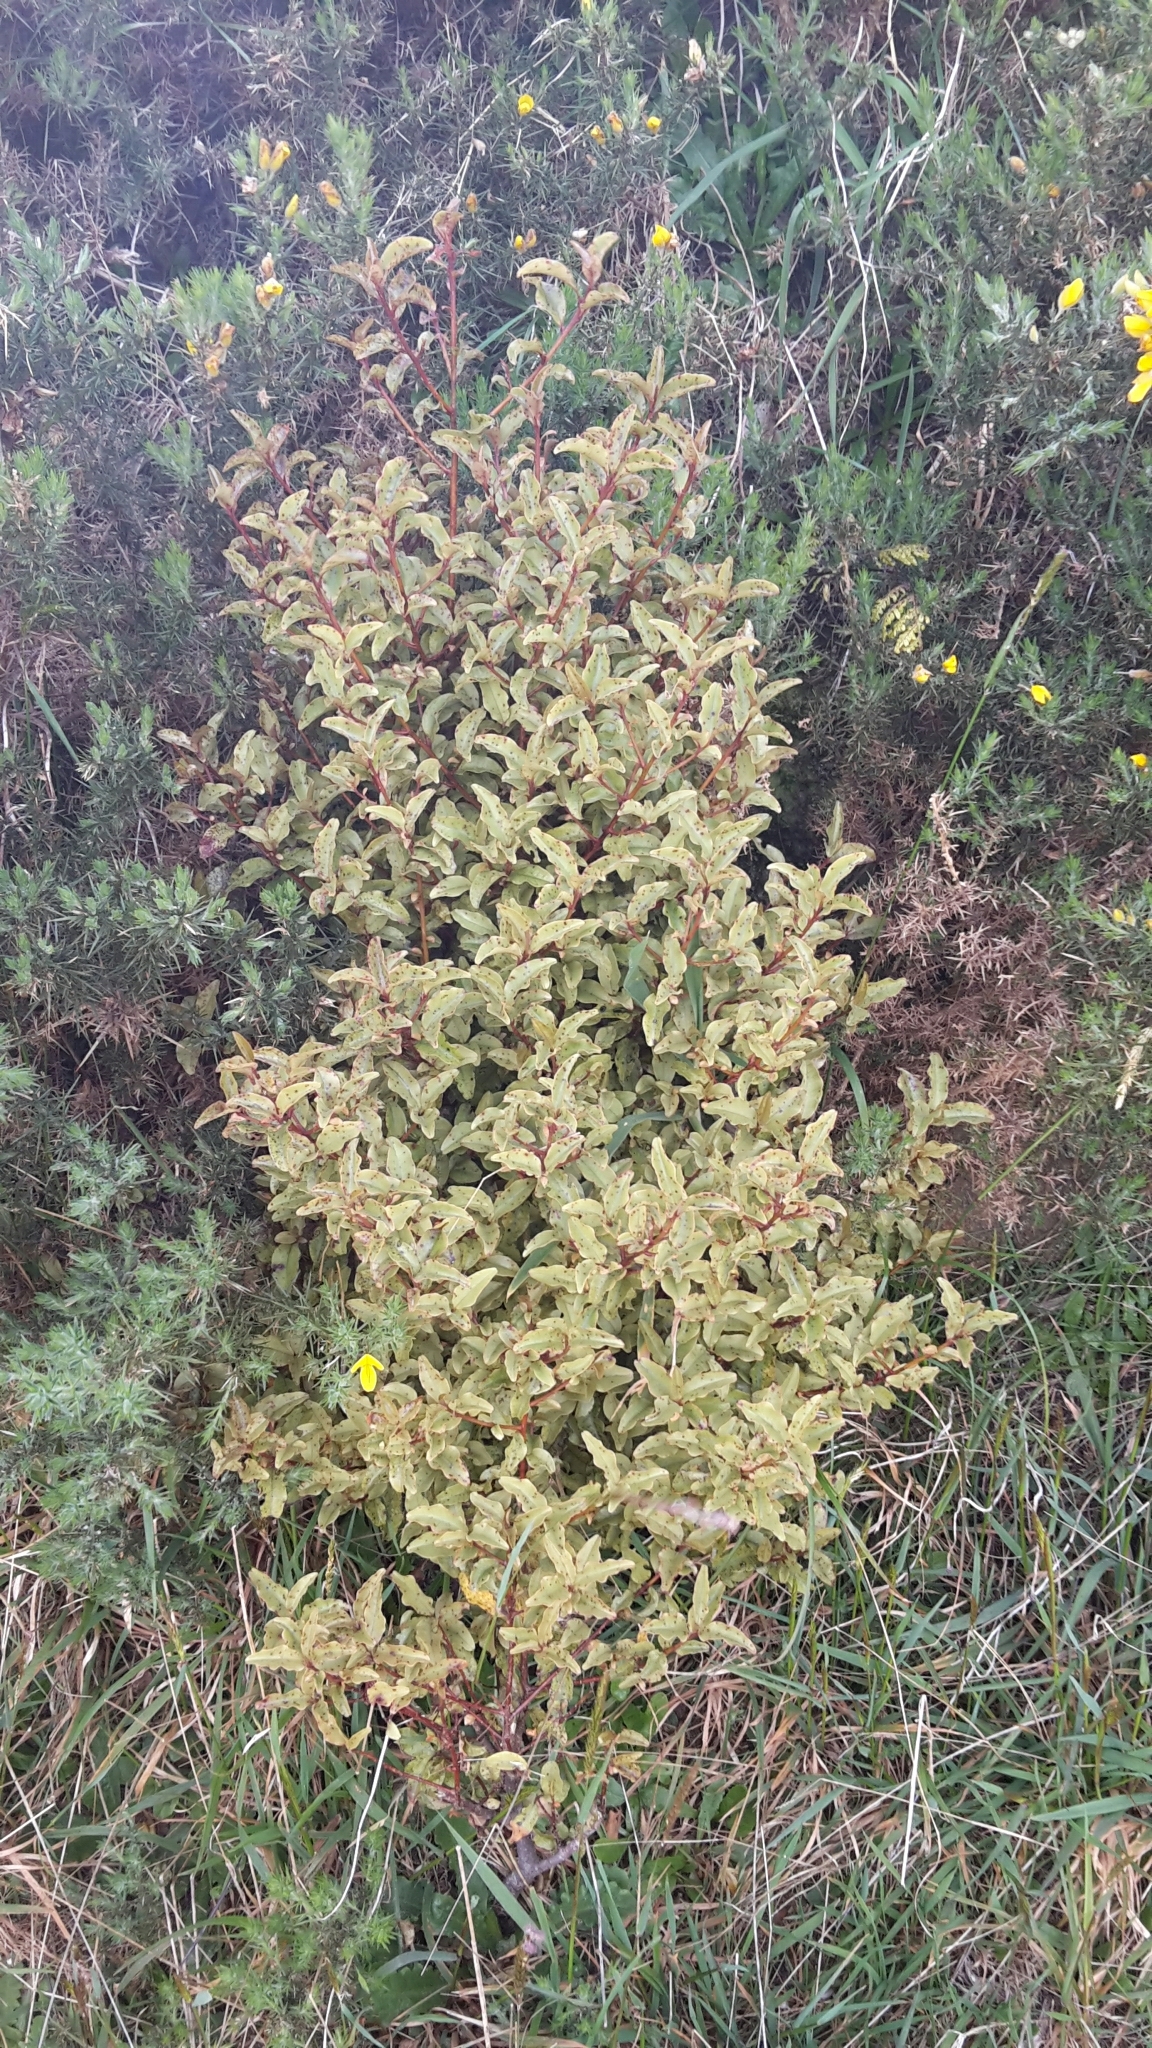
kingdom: Plantae
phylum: Tracheophyta
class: Magnoliopsida
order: Ericales
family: Primulaceae
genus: Myrsine
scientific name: Myrsine australis
